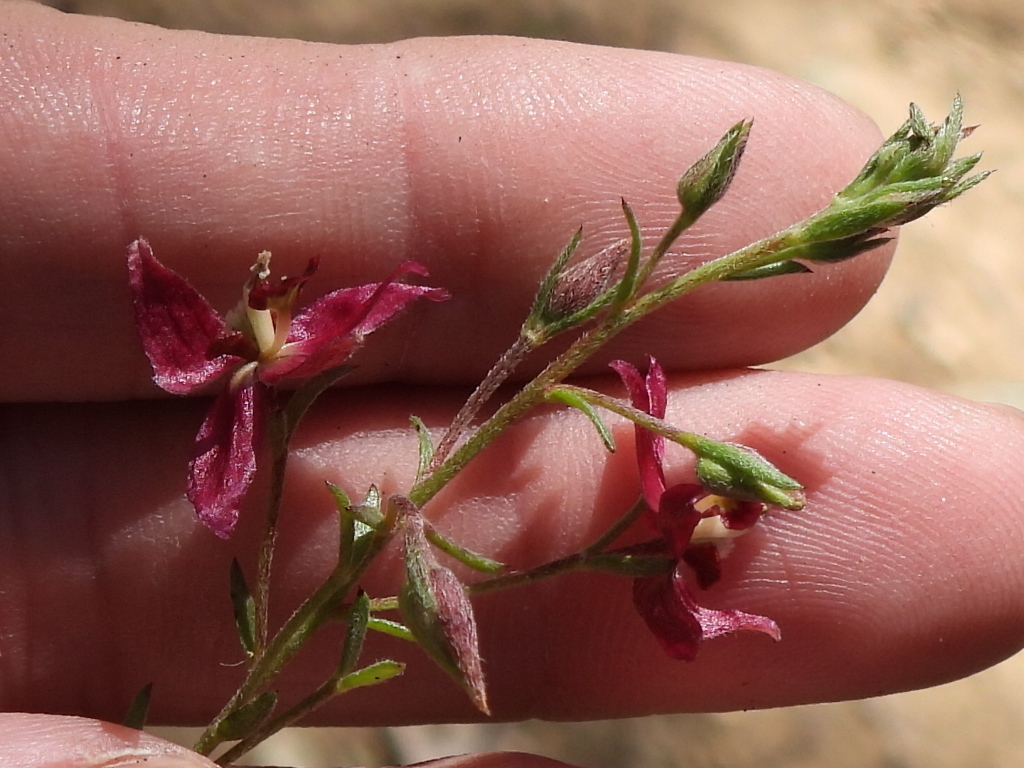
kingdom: Plantae
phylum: Tracheophyta
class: Magnoliopsida
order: Zygophyllales
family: Krameriaceae
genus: Krameria
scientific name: Krameria lanceolata
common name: Ratany
